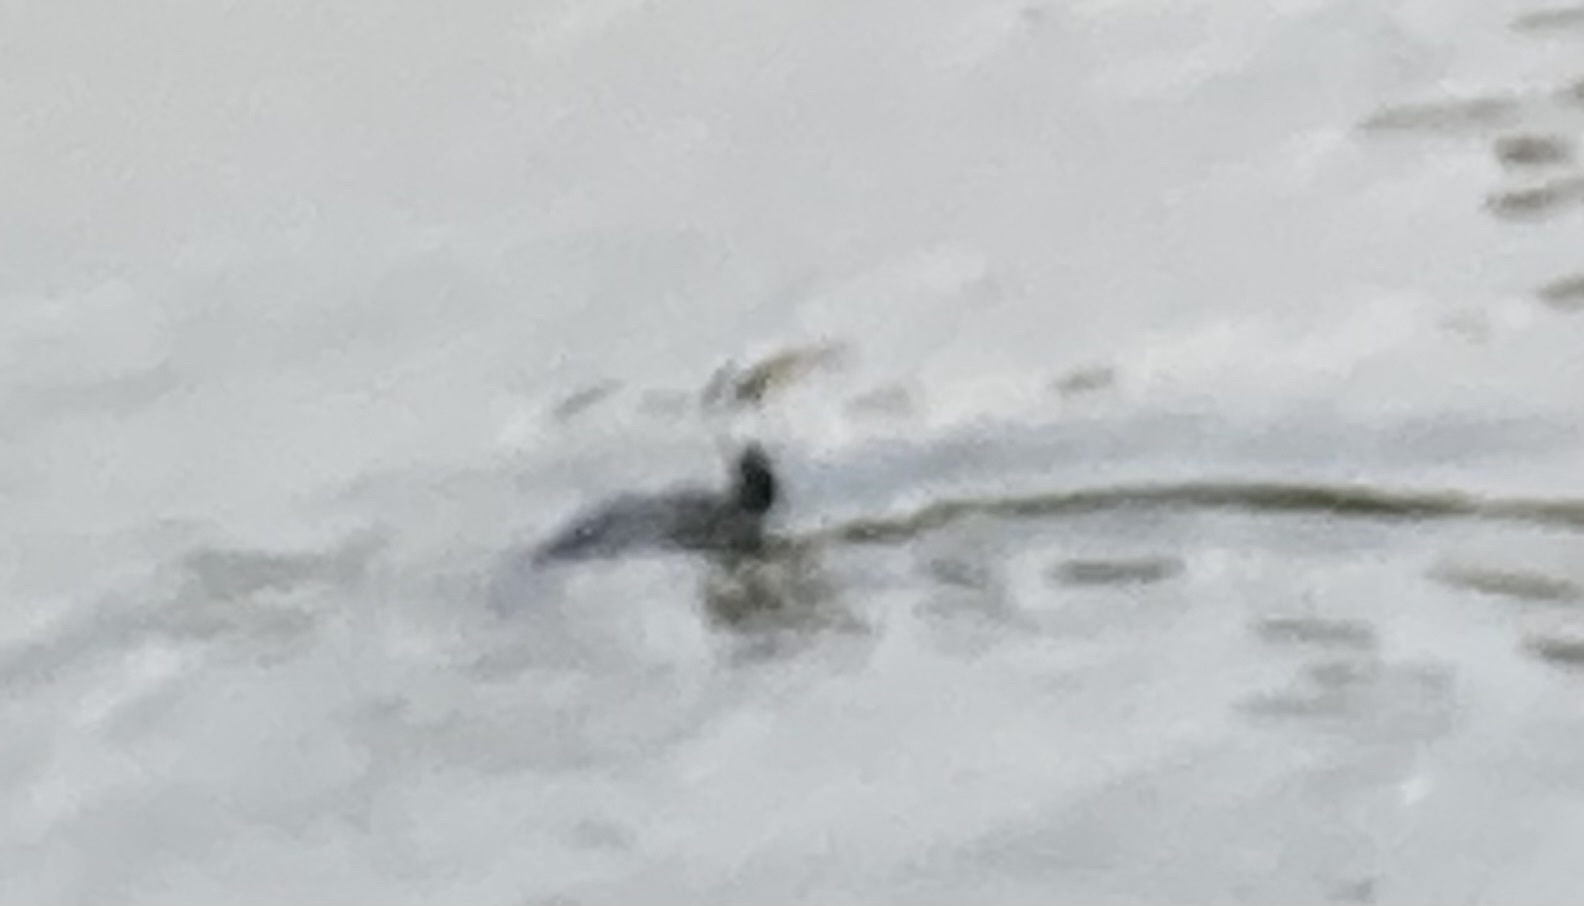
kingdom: Animalia
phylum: Chordata
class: Aves
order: Suliformes
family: Phalacrocoracidae
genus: Phalacrocorax
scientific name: Phalacrocorax carbo
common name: Great cormorant
